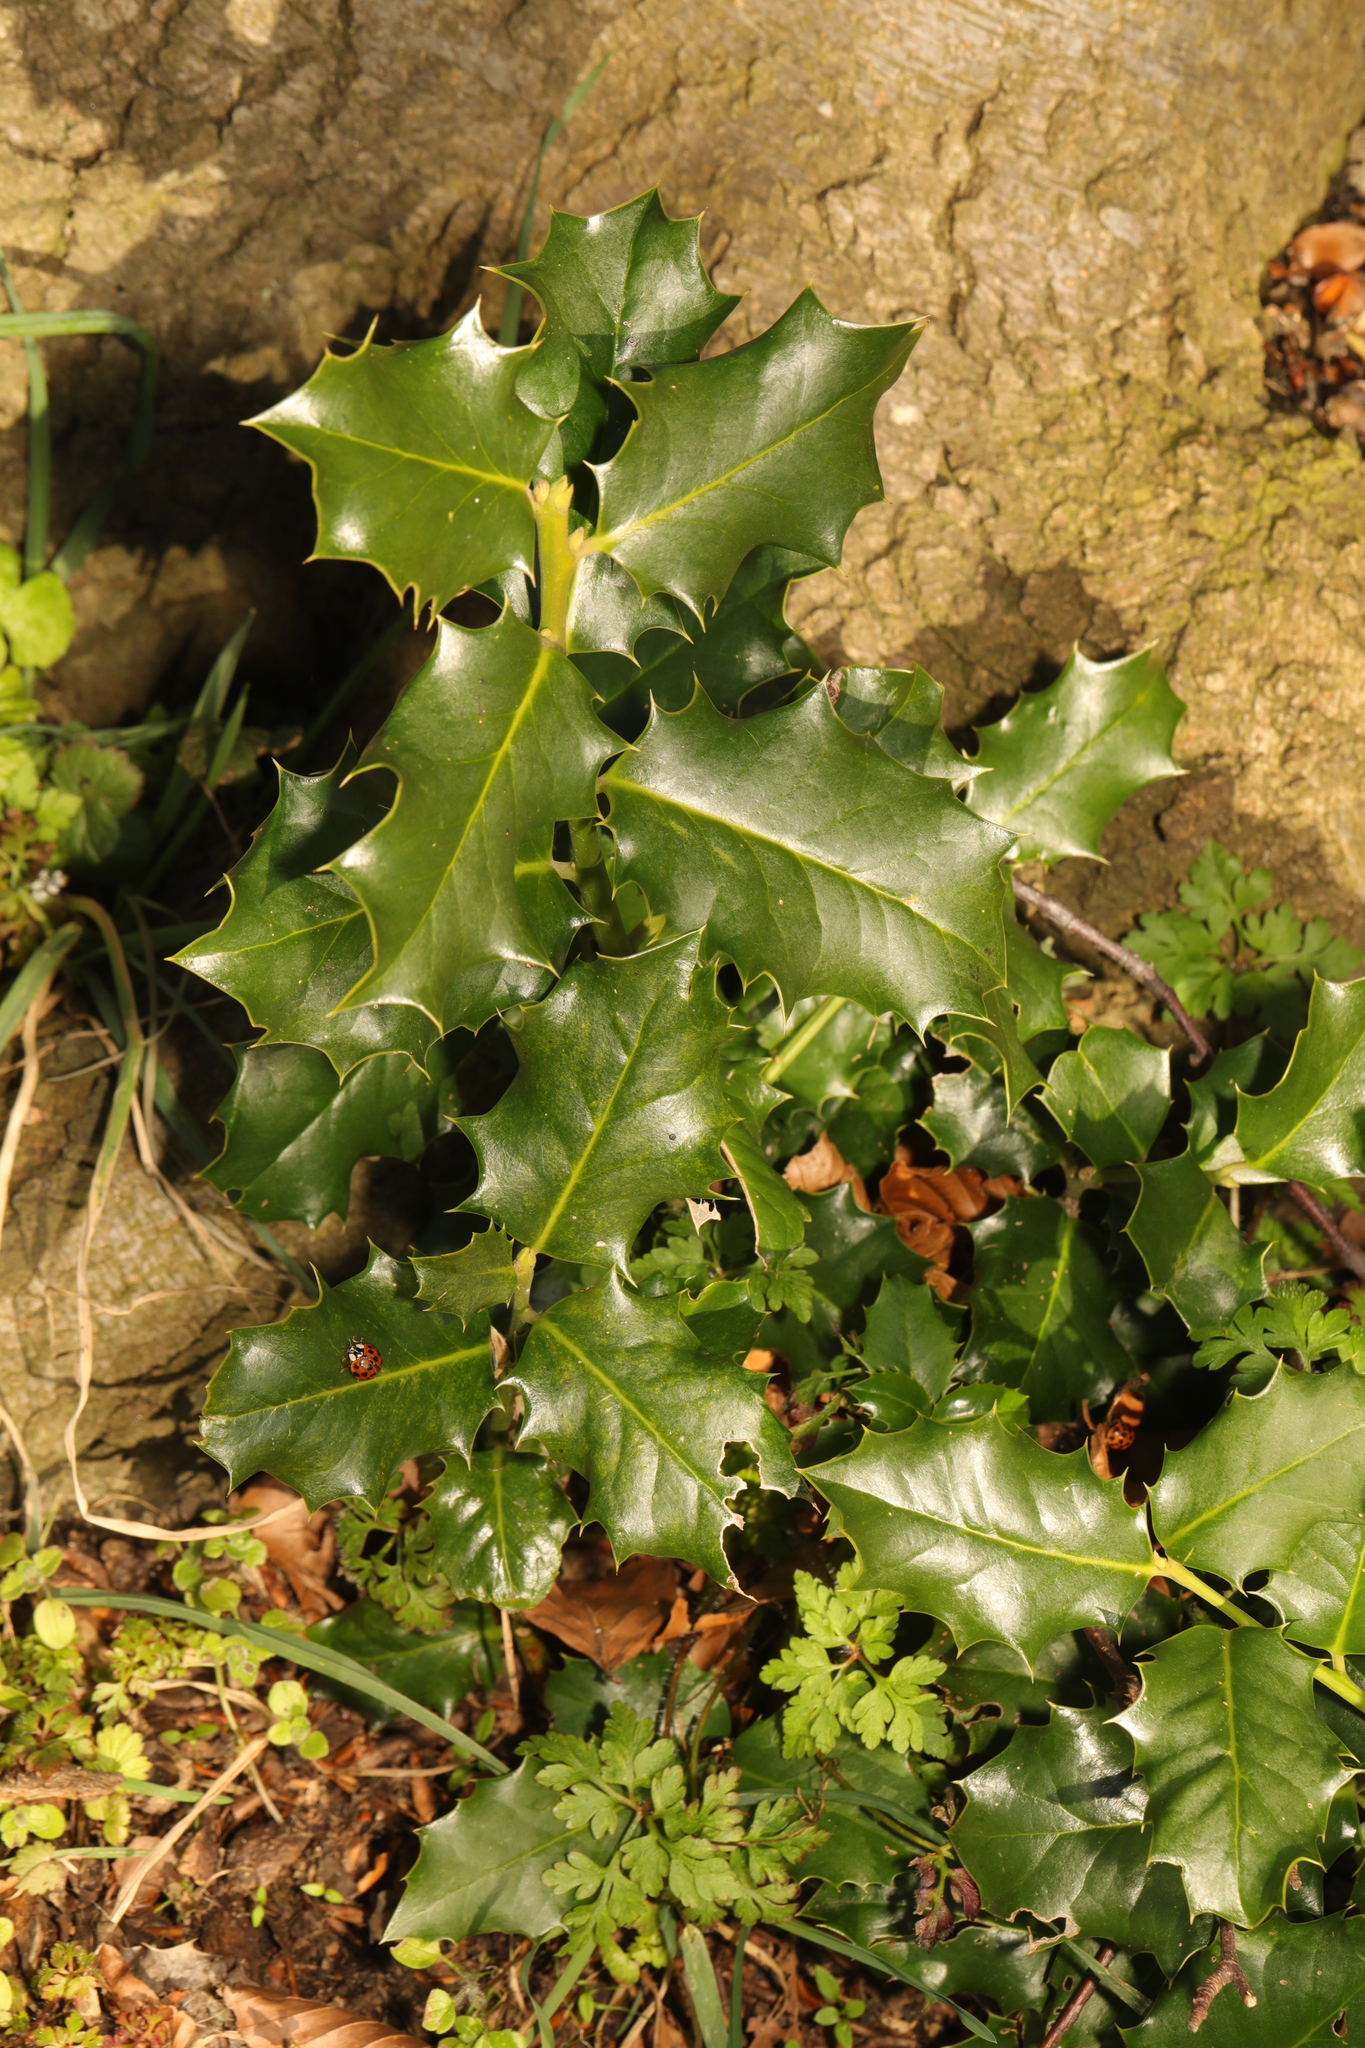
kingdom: Plantae
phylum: Tracheophyta
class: Magnoliopsida
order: Aquifoliales
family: Aquifoliaceae
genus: Ilex
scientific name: Ilex aquifolium
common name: English holly
